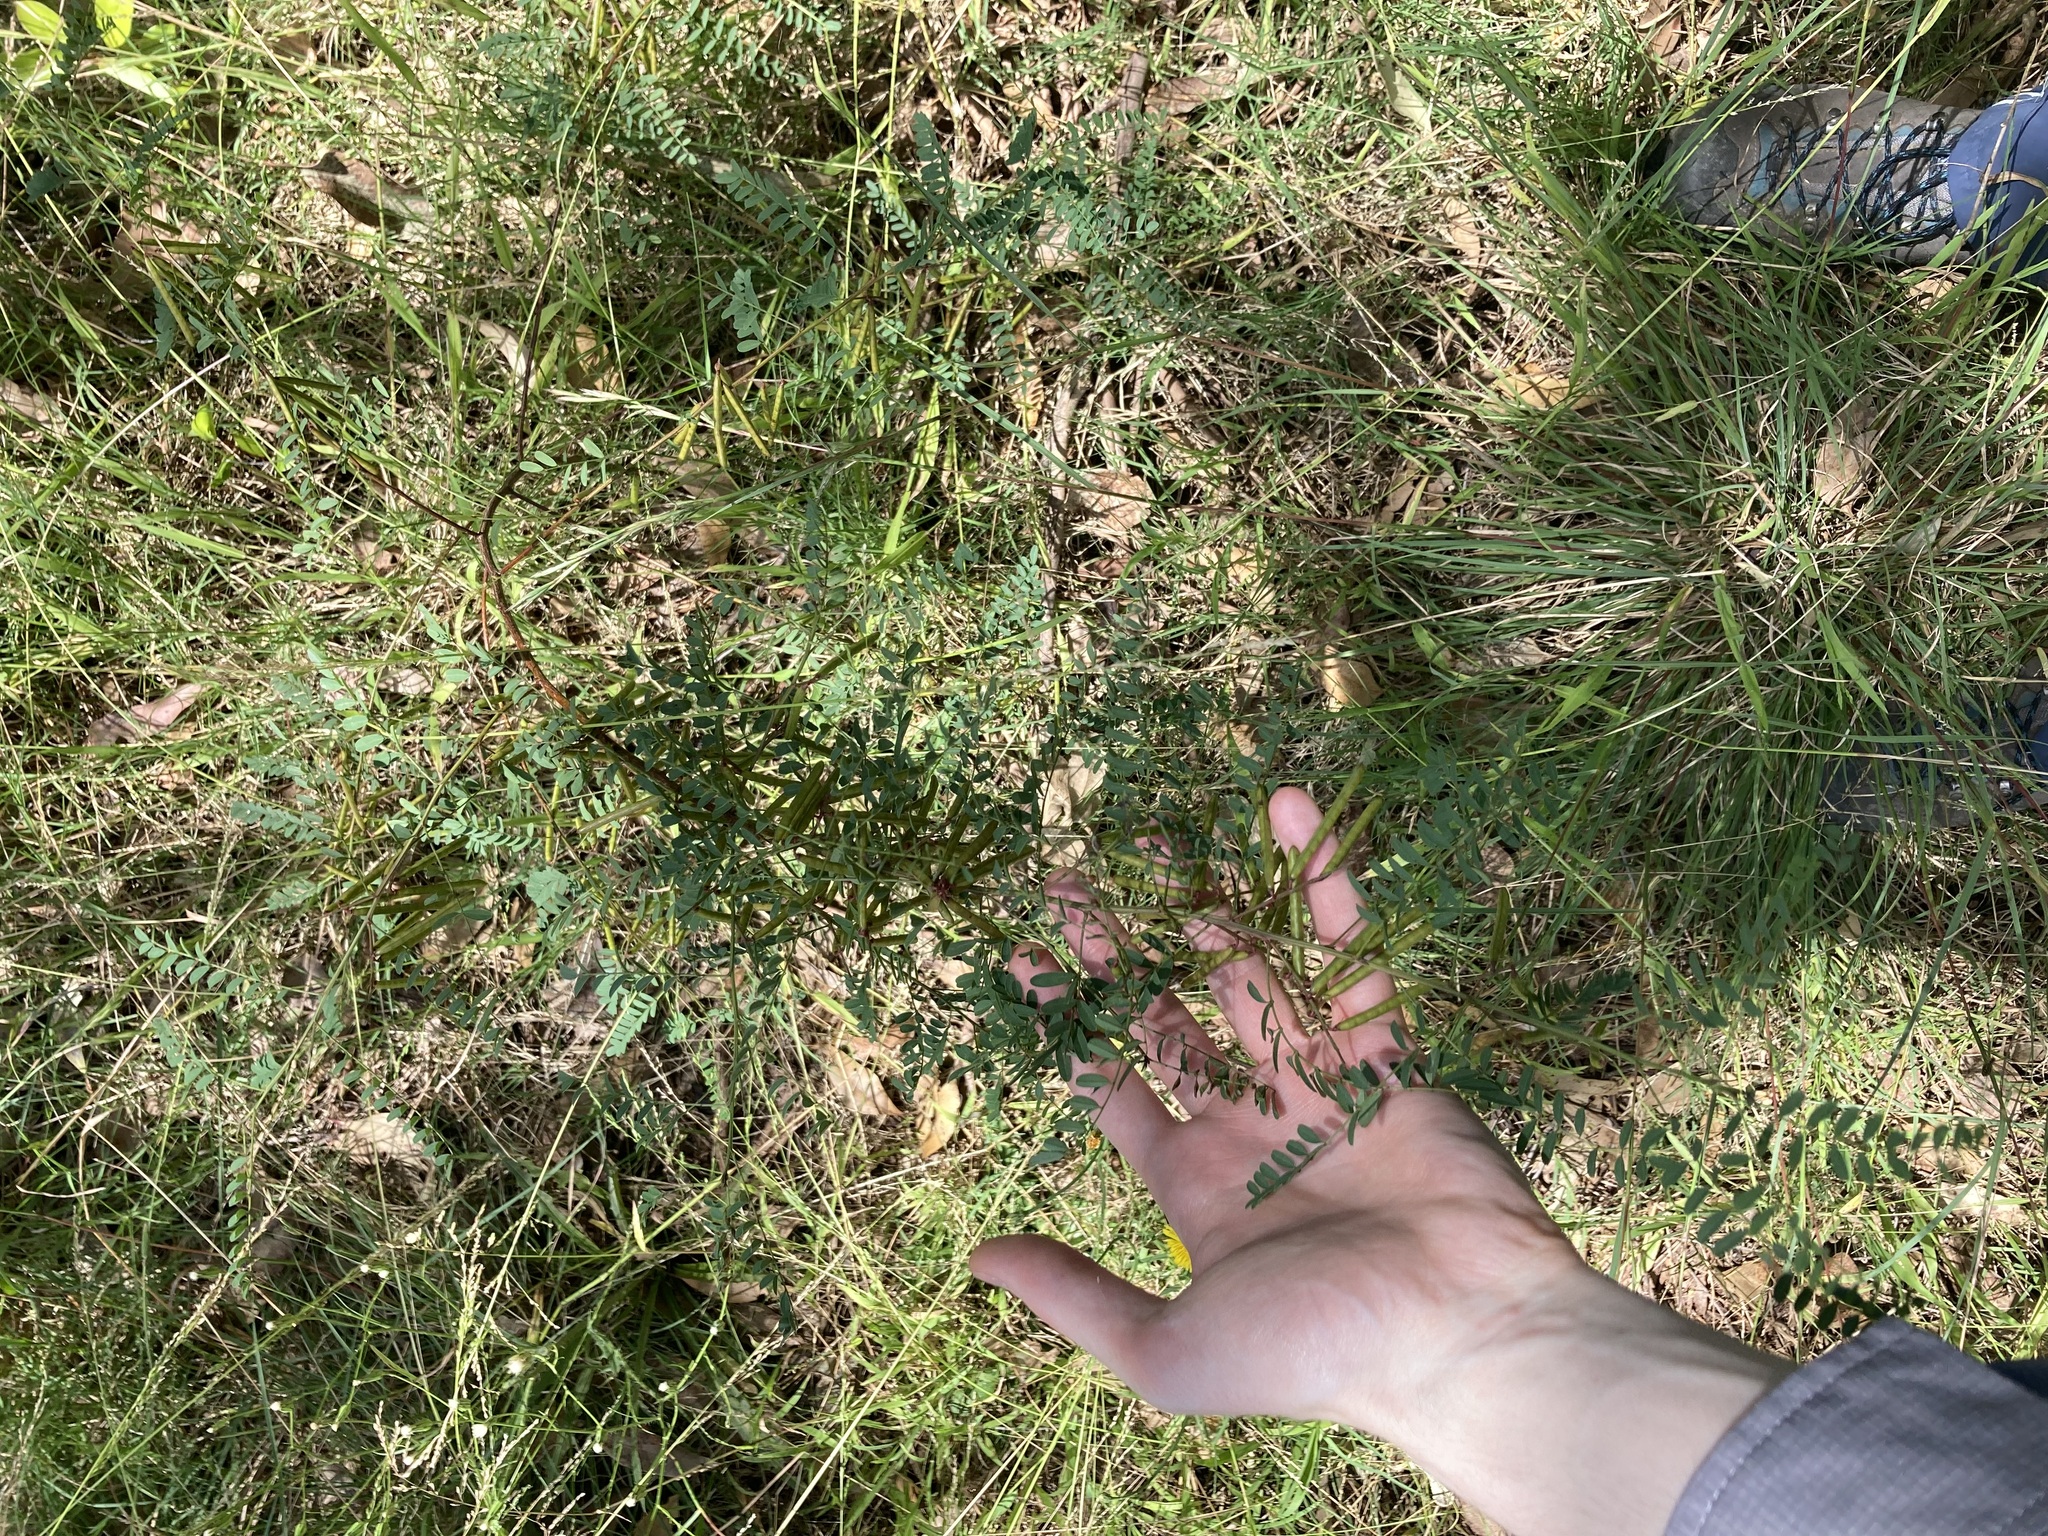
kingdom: Plantae
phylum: Tracheophyta
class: Magnoliopsida
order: Fabales
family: Fabaceae
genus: Indigofera
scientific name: Indigofera australis
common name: Australian indigo
